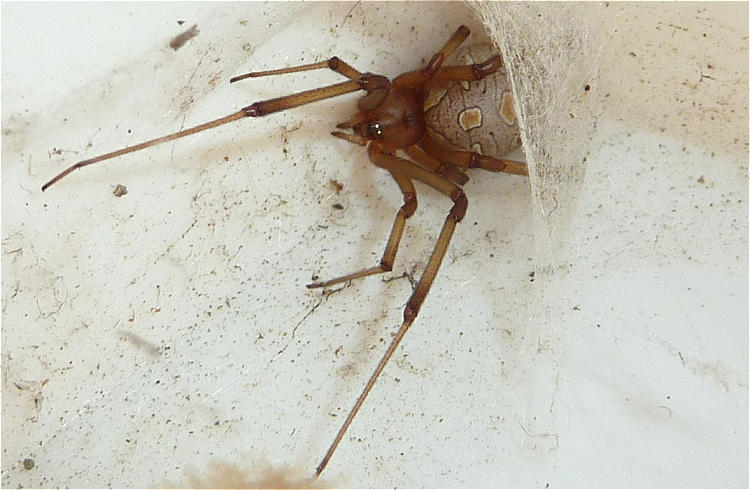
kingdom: Animalia
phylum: Arthropoda
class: Arachnida
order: Araneae
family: Theridiidae
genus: Latrodectus
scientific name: Latrodectus geometricus
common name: Brown widow spider
